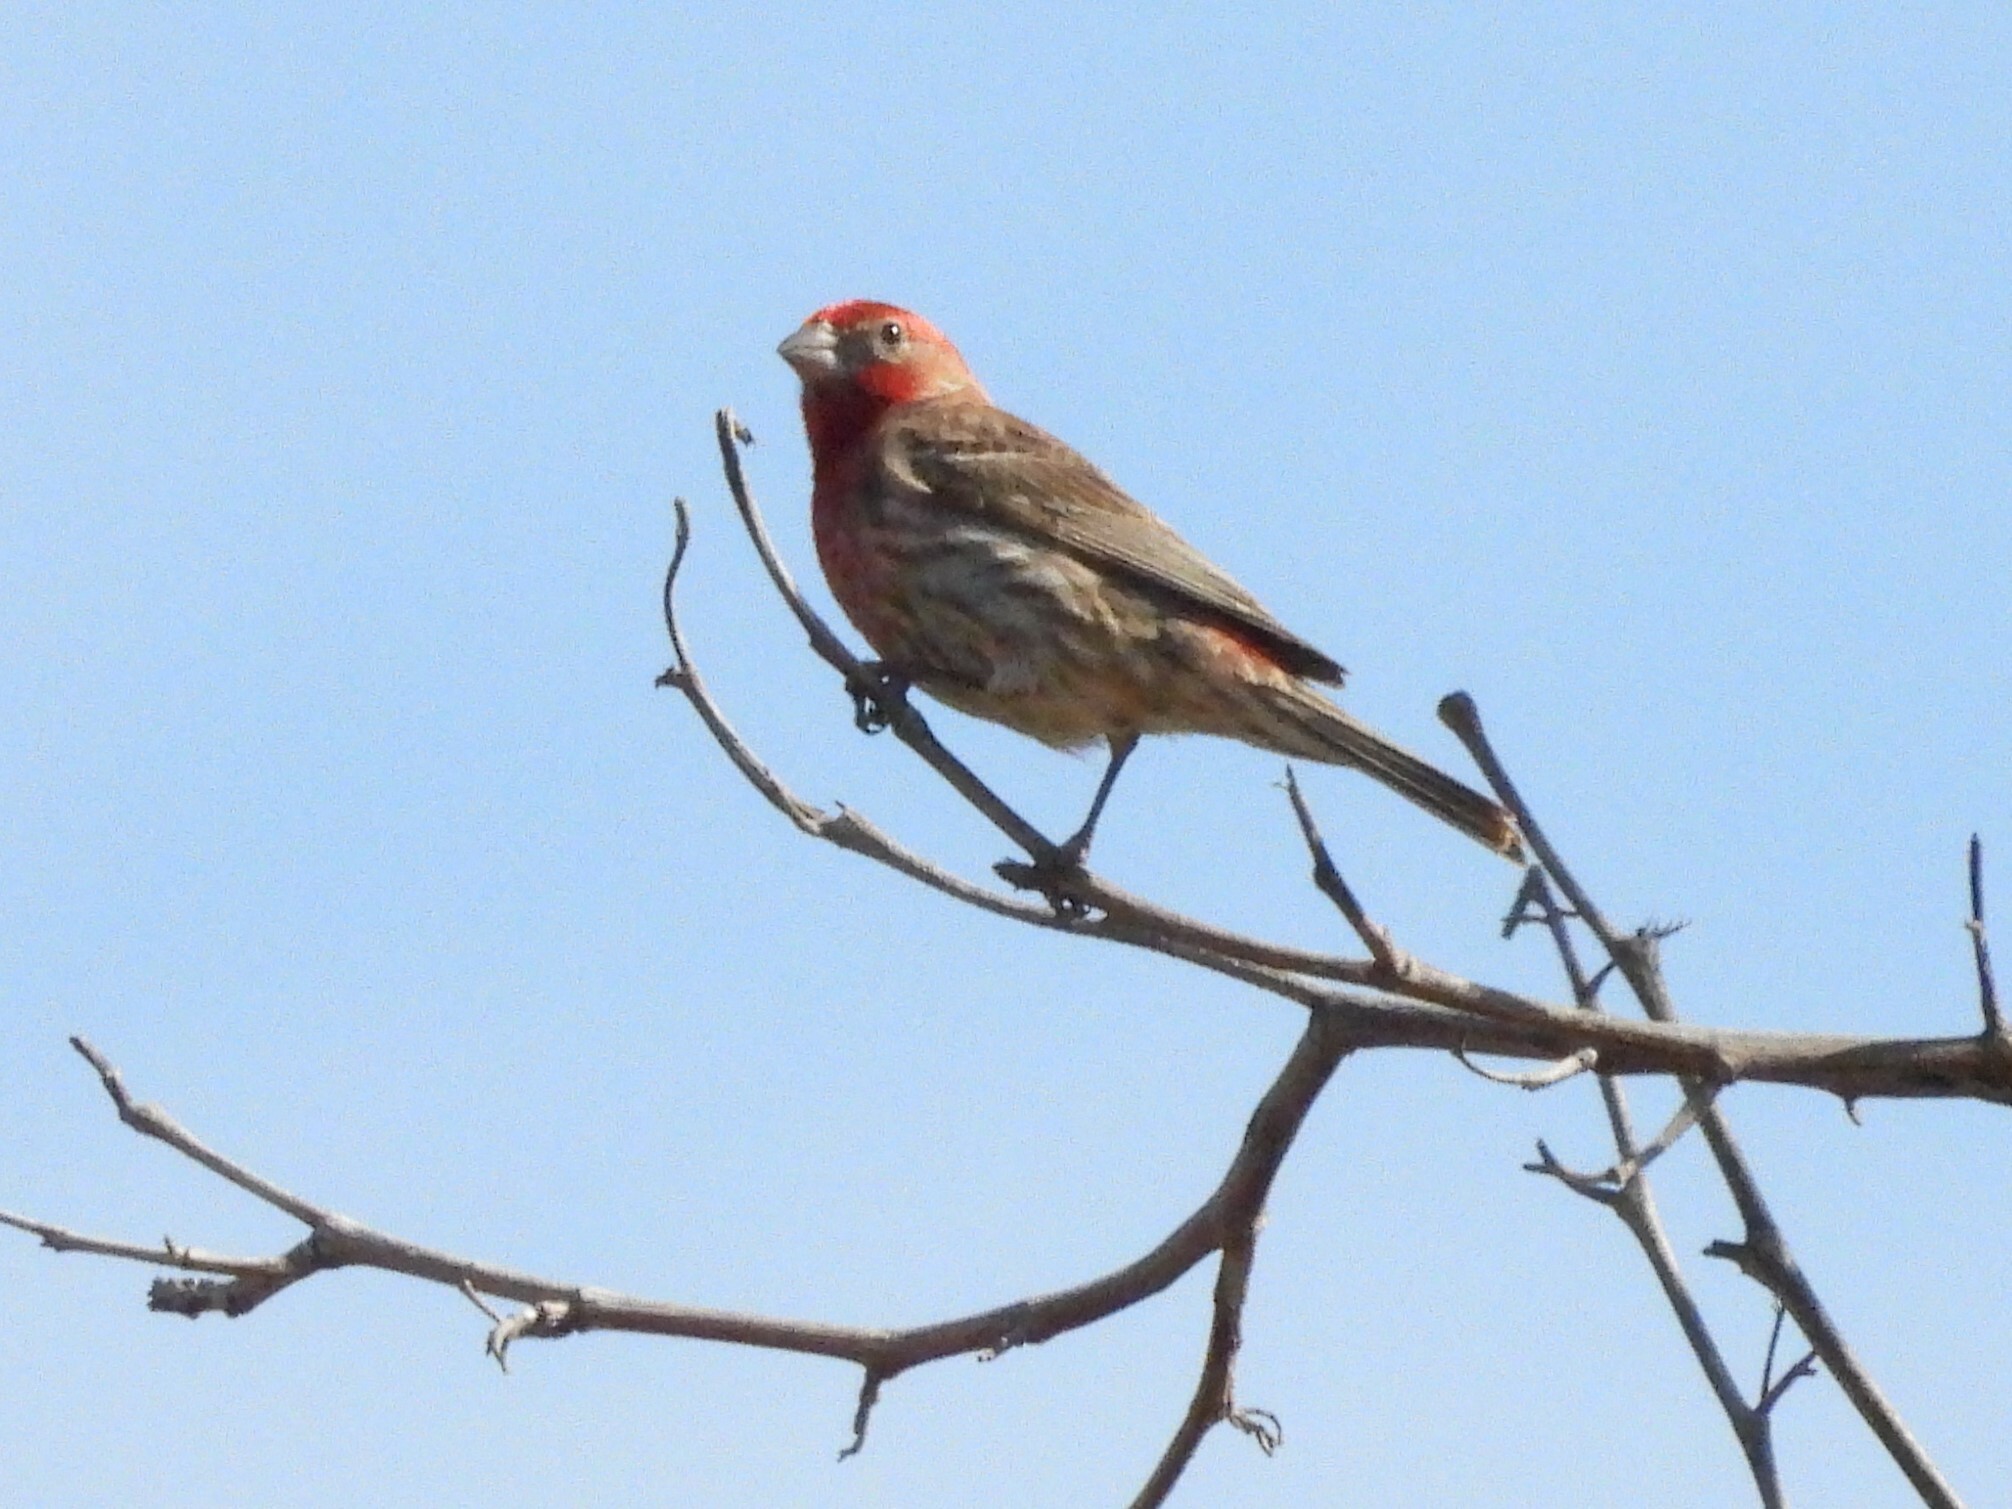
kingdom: Animalia
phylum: Chordata
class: Aves
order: Passeriformes
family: Fringillidae
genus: Haemorhous
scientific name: Haemorhous mexicanus
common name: House finch
